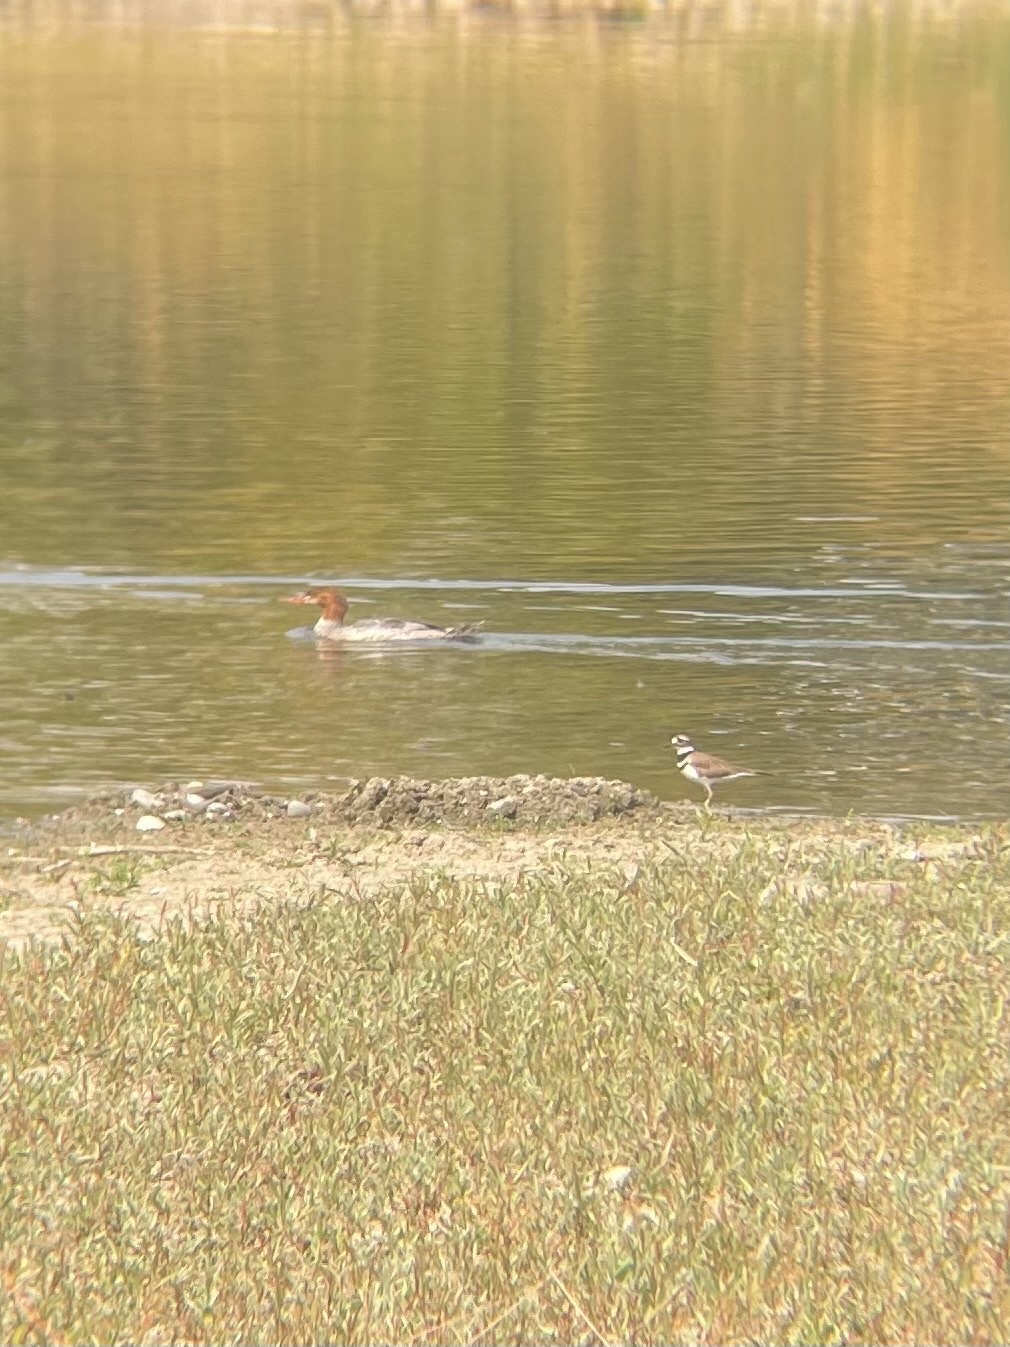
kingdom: Animalia
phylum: Chordata
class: Aves
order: Charadriiformes
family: Charadriidae
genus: Charadrius
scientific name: Charadrius vociferus
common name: Killdeer
